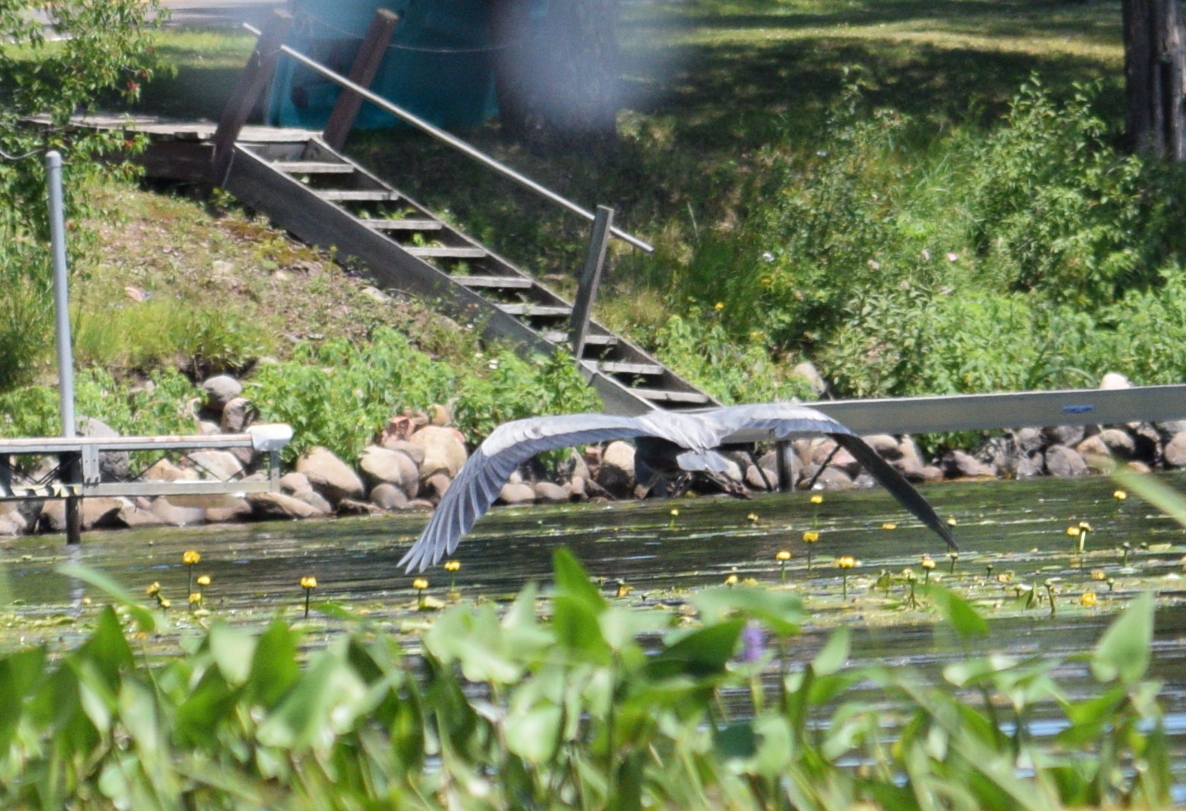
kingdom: Animalia
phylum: Chordata
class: Aves
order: Pelecaniformes
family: Ardeidae
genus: Ardea
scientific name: Ardea herodias
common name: Great blue heron
